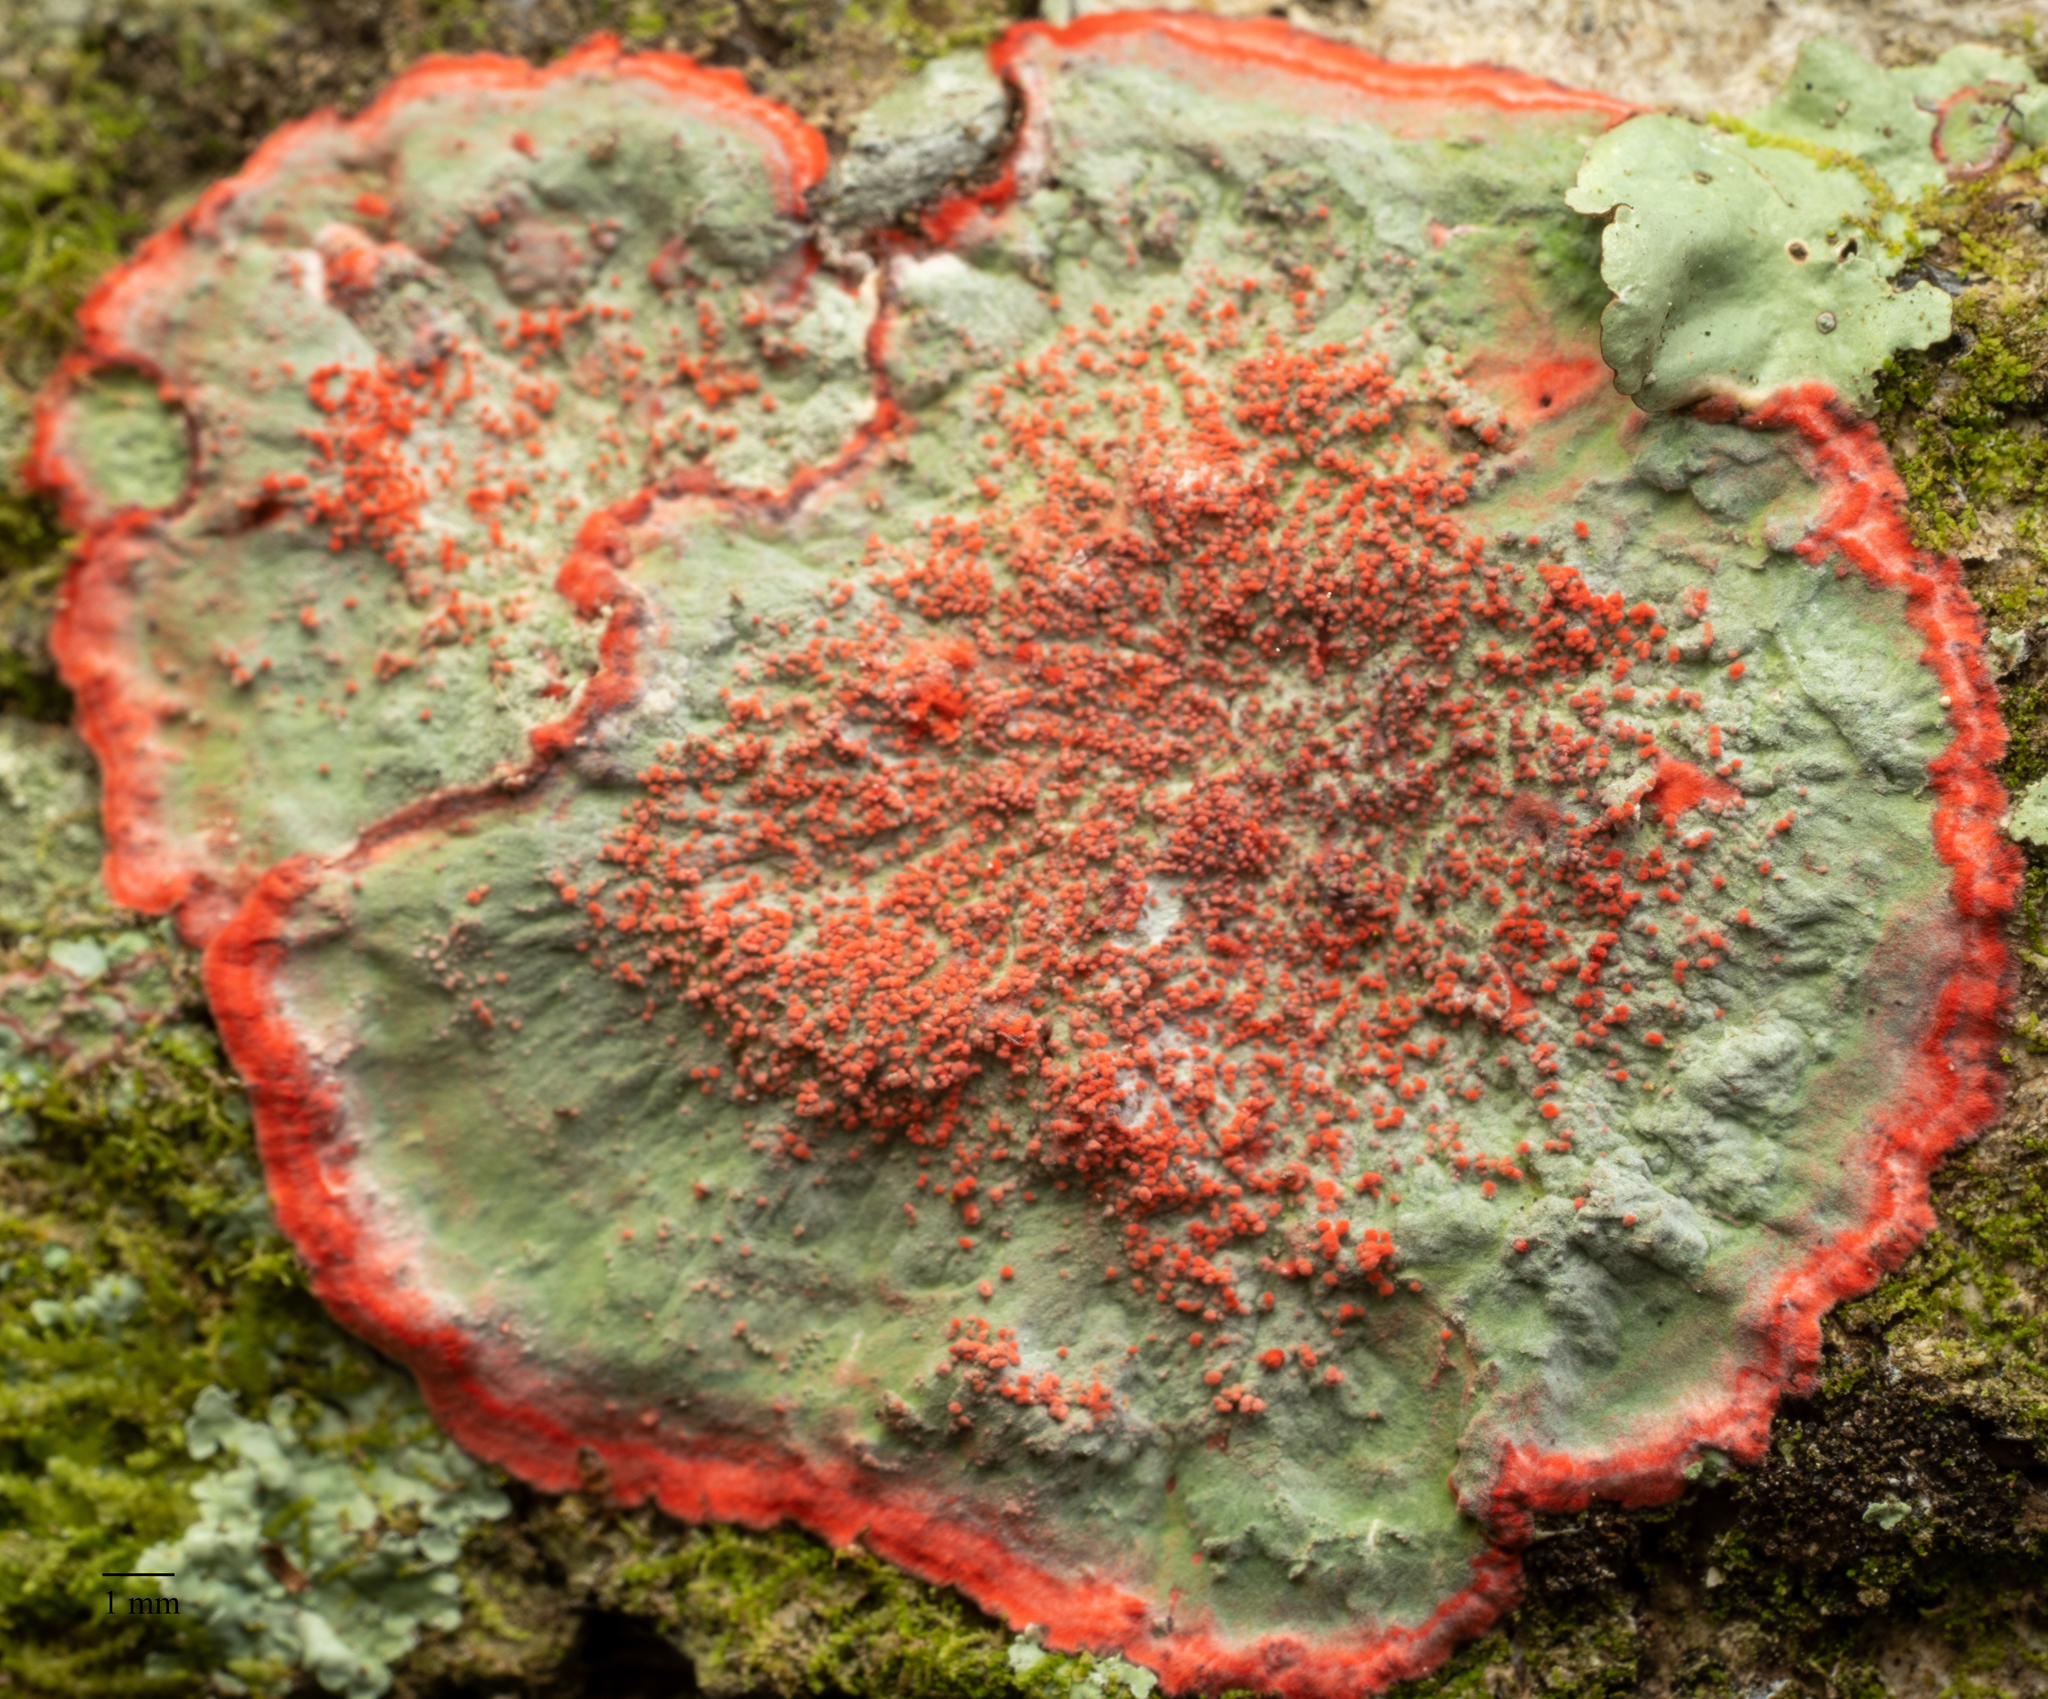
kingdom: Fungi
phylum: Ascomycota
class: Arthoniomycetes
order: Arthoniales
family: Arthoniaceae
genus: Herpothallon
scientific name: Herpothallon rubrocinctum
